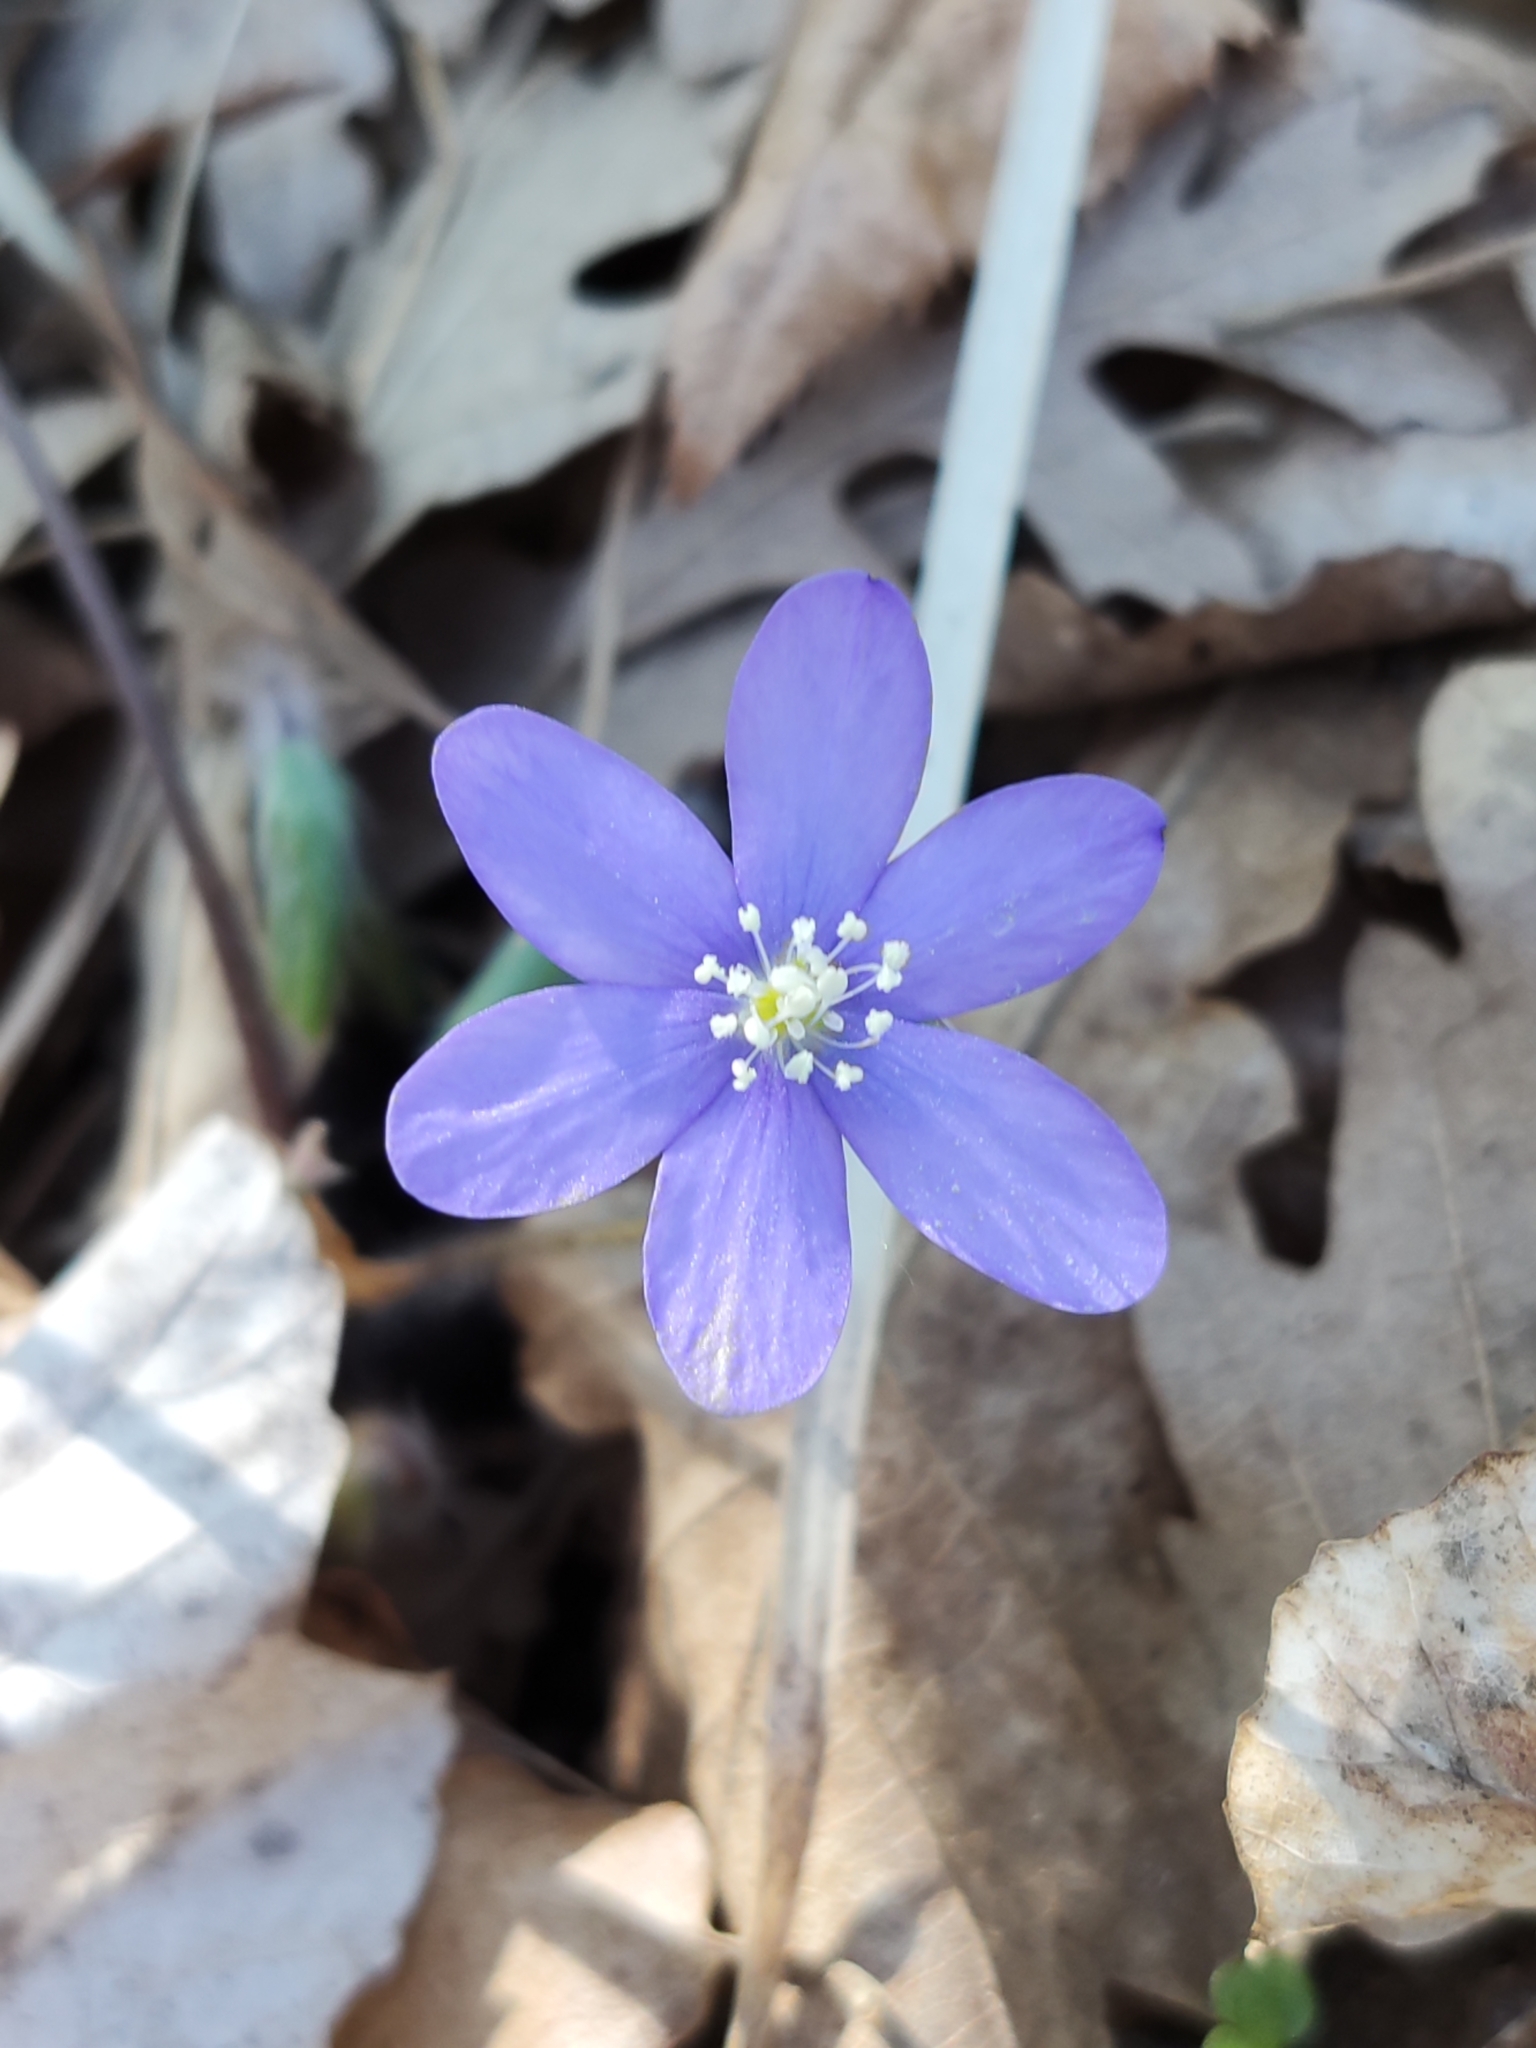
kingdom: Plantae
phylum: Tracheophyta
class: Magnoliopsida
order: Ranunculales
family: Ranunculaceae
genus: Hepatica
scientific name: Hepatica nobilis
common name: Liverleaf
